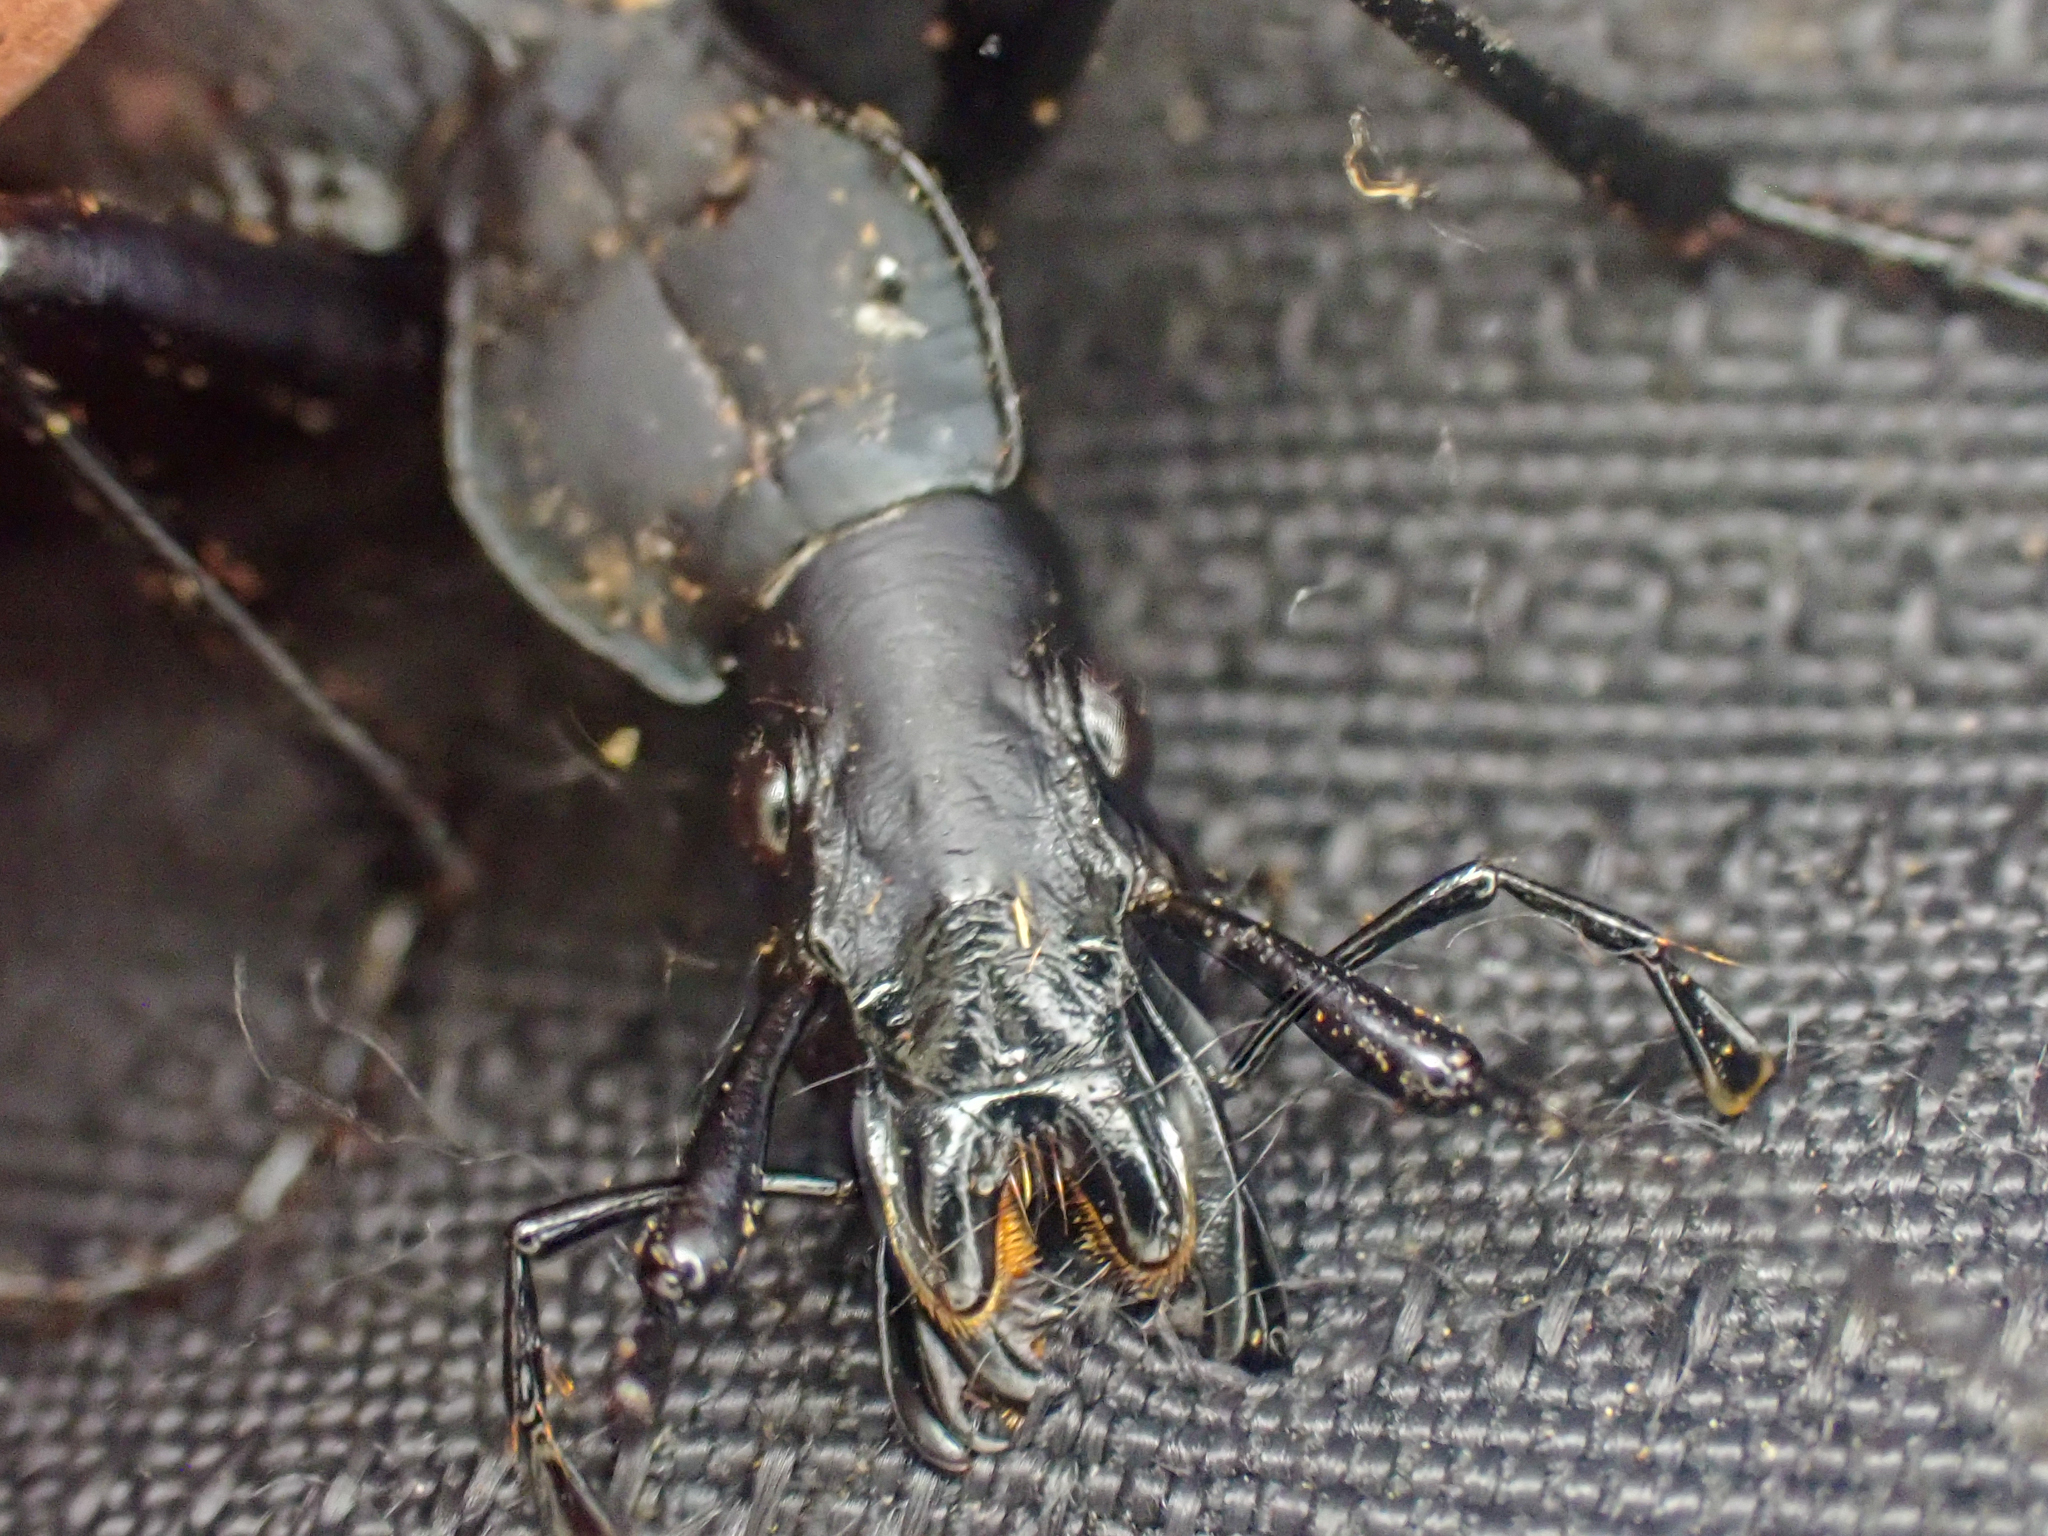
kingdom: Animalia
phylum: Arthropoda
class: Insecta
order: Coleoptera
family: Carabidae
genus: Scaphinotus
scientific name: Scaphinotus velutinus
